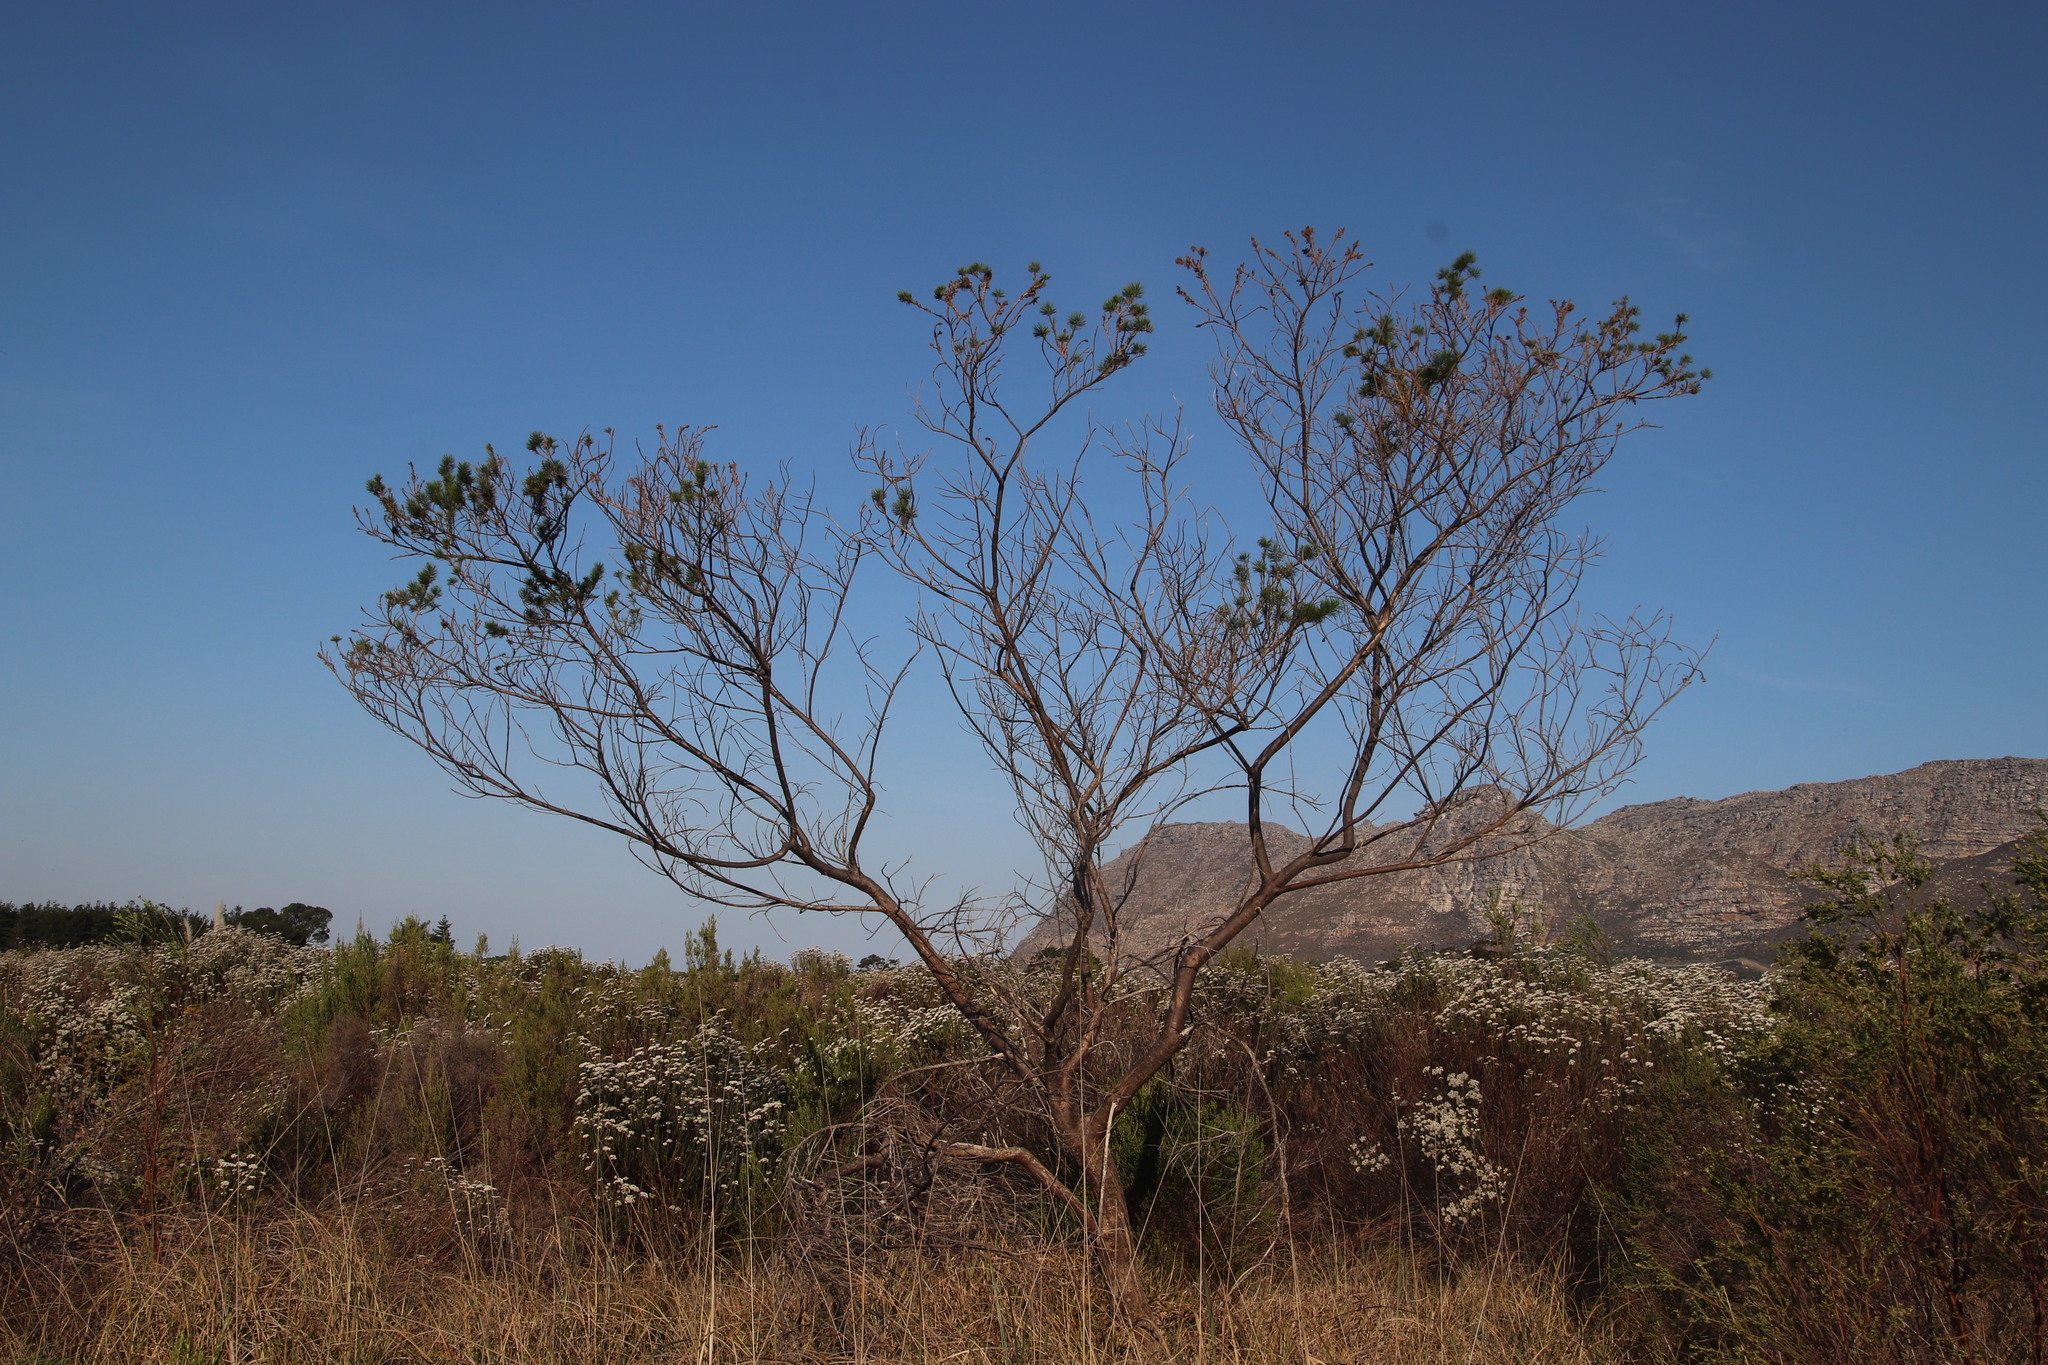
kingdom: Plantae
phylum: Tracheophyta
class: Magnoliopsida
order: Fabales
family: Fabaceae
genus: Psoralea
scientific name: Psoralea pinnata
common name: African scurfpea
